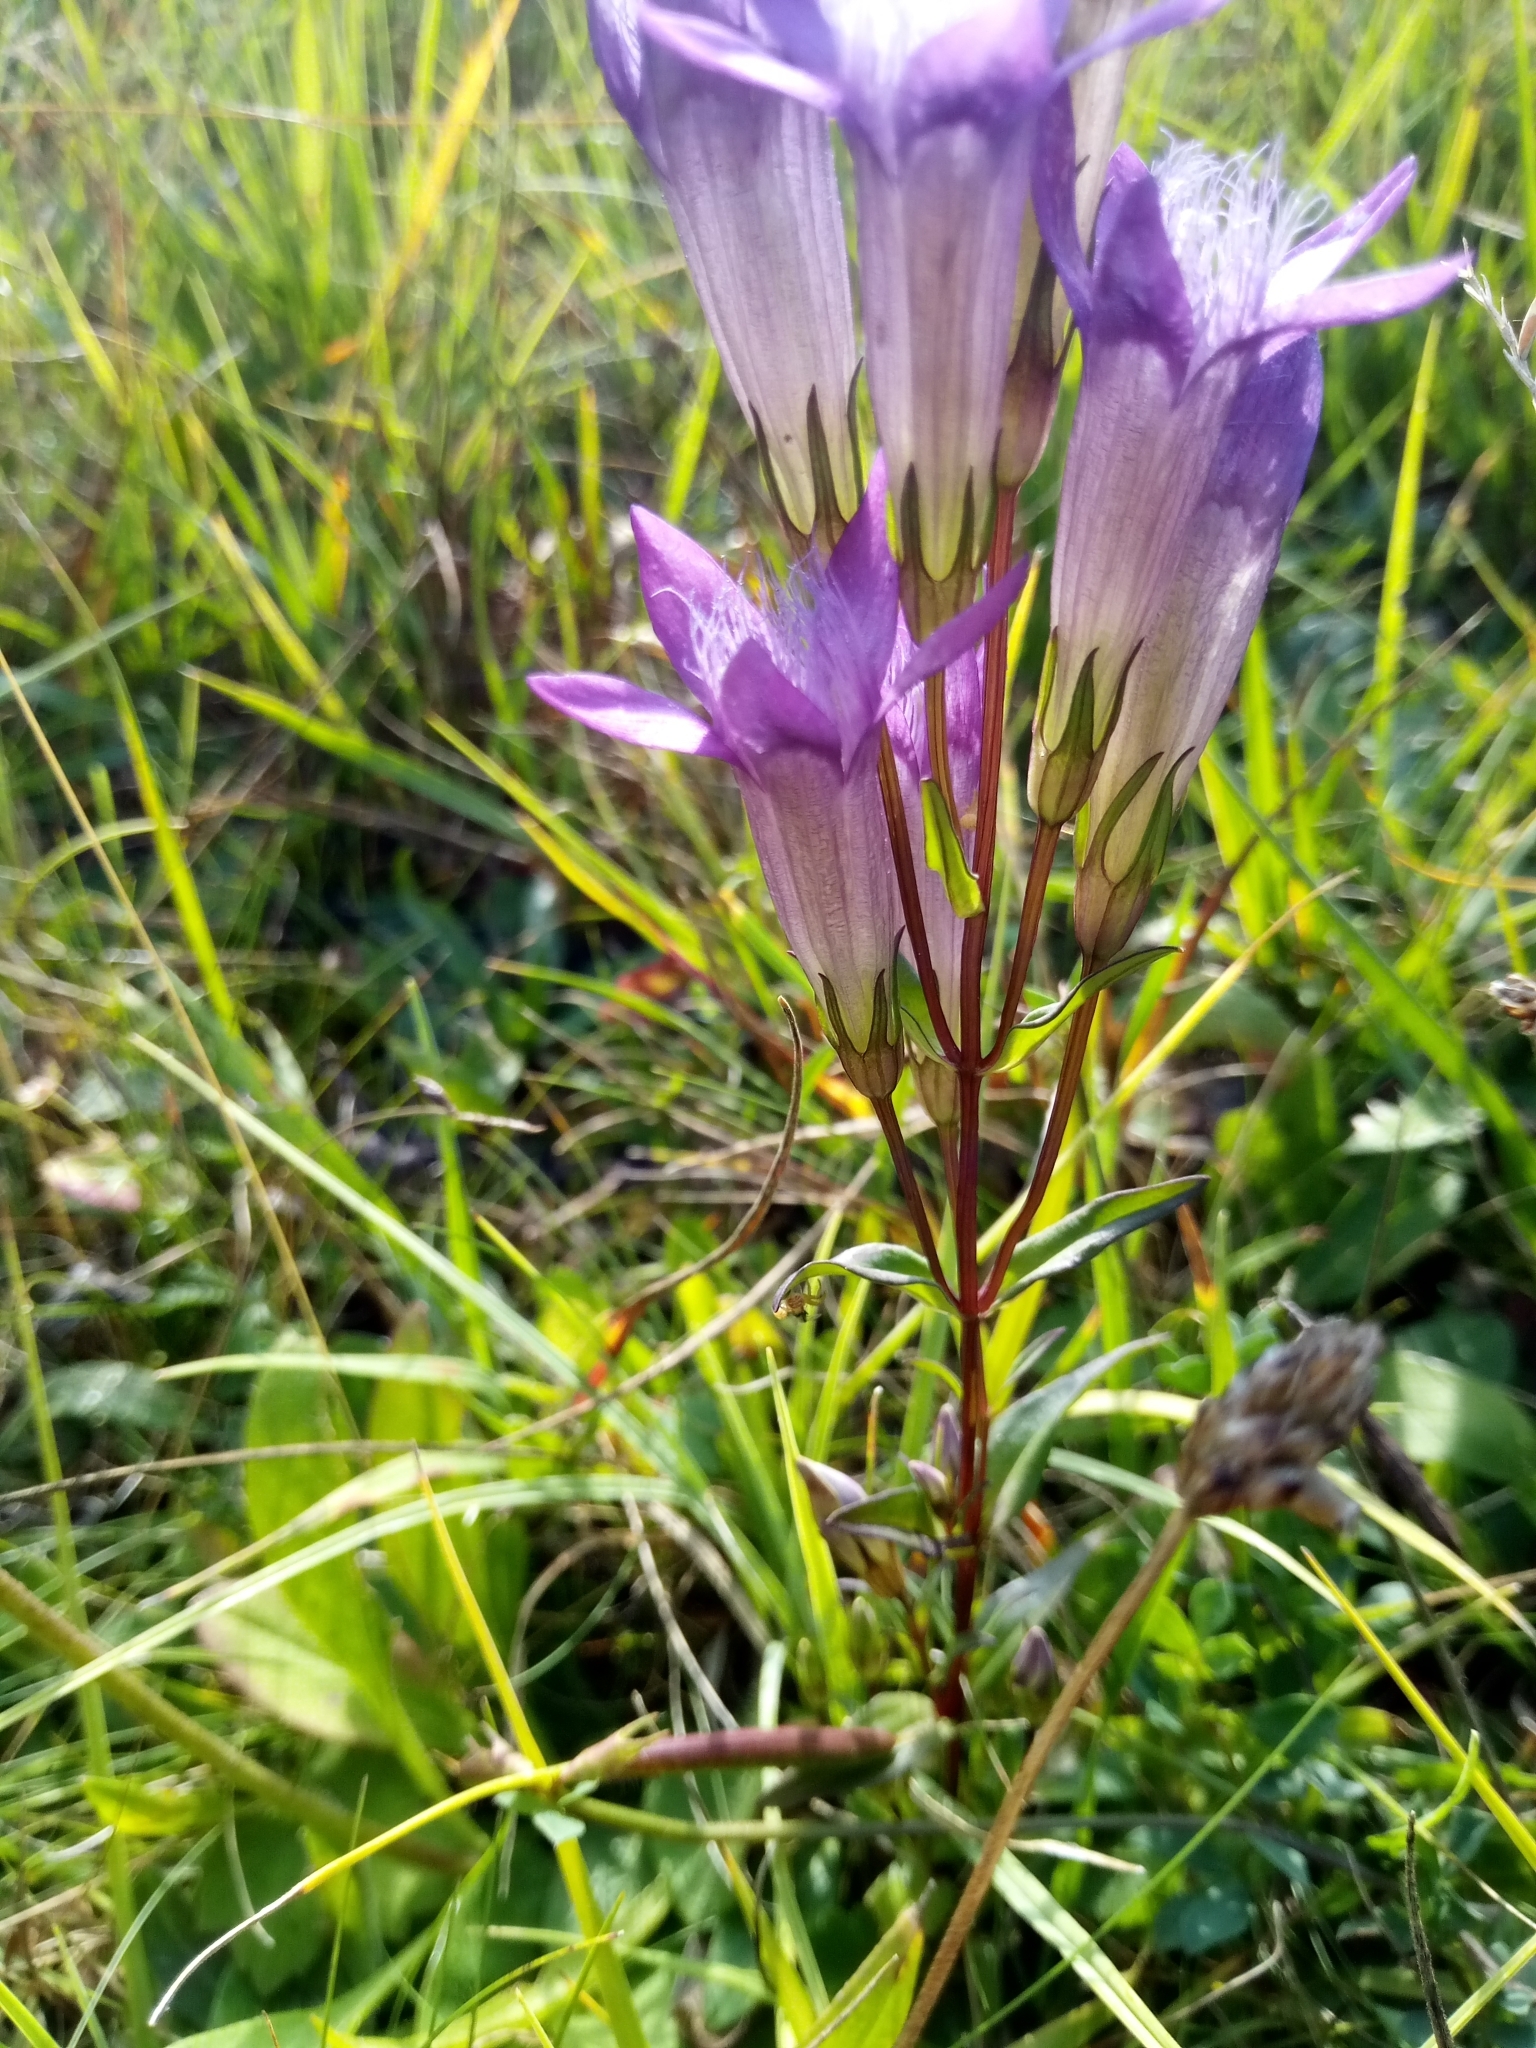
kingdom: Plantae
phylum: Tracheophyta
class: Magnoliopsida
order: Gentianales
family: Gentianaceae
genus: Gentianella
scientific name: Gentianella praecox
